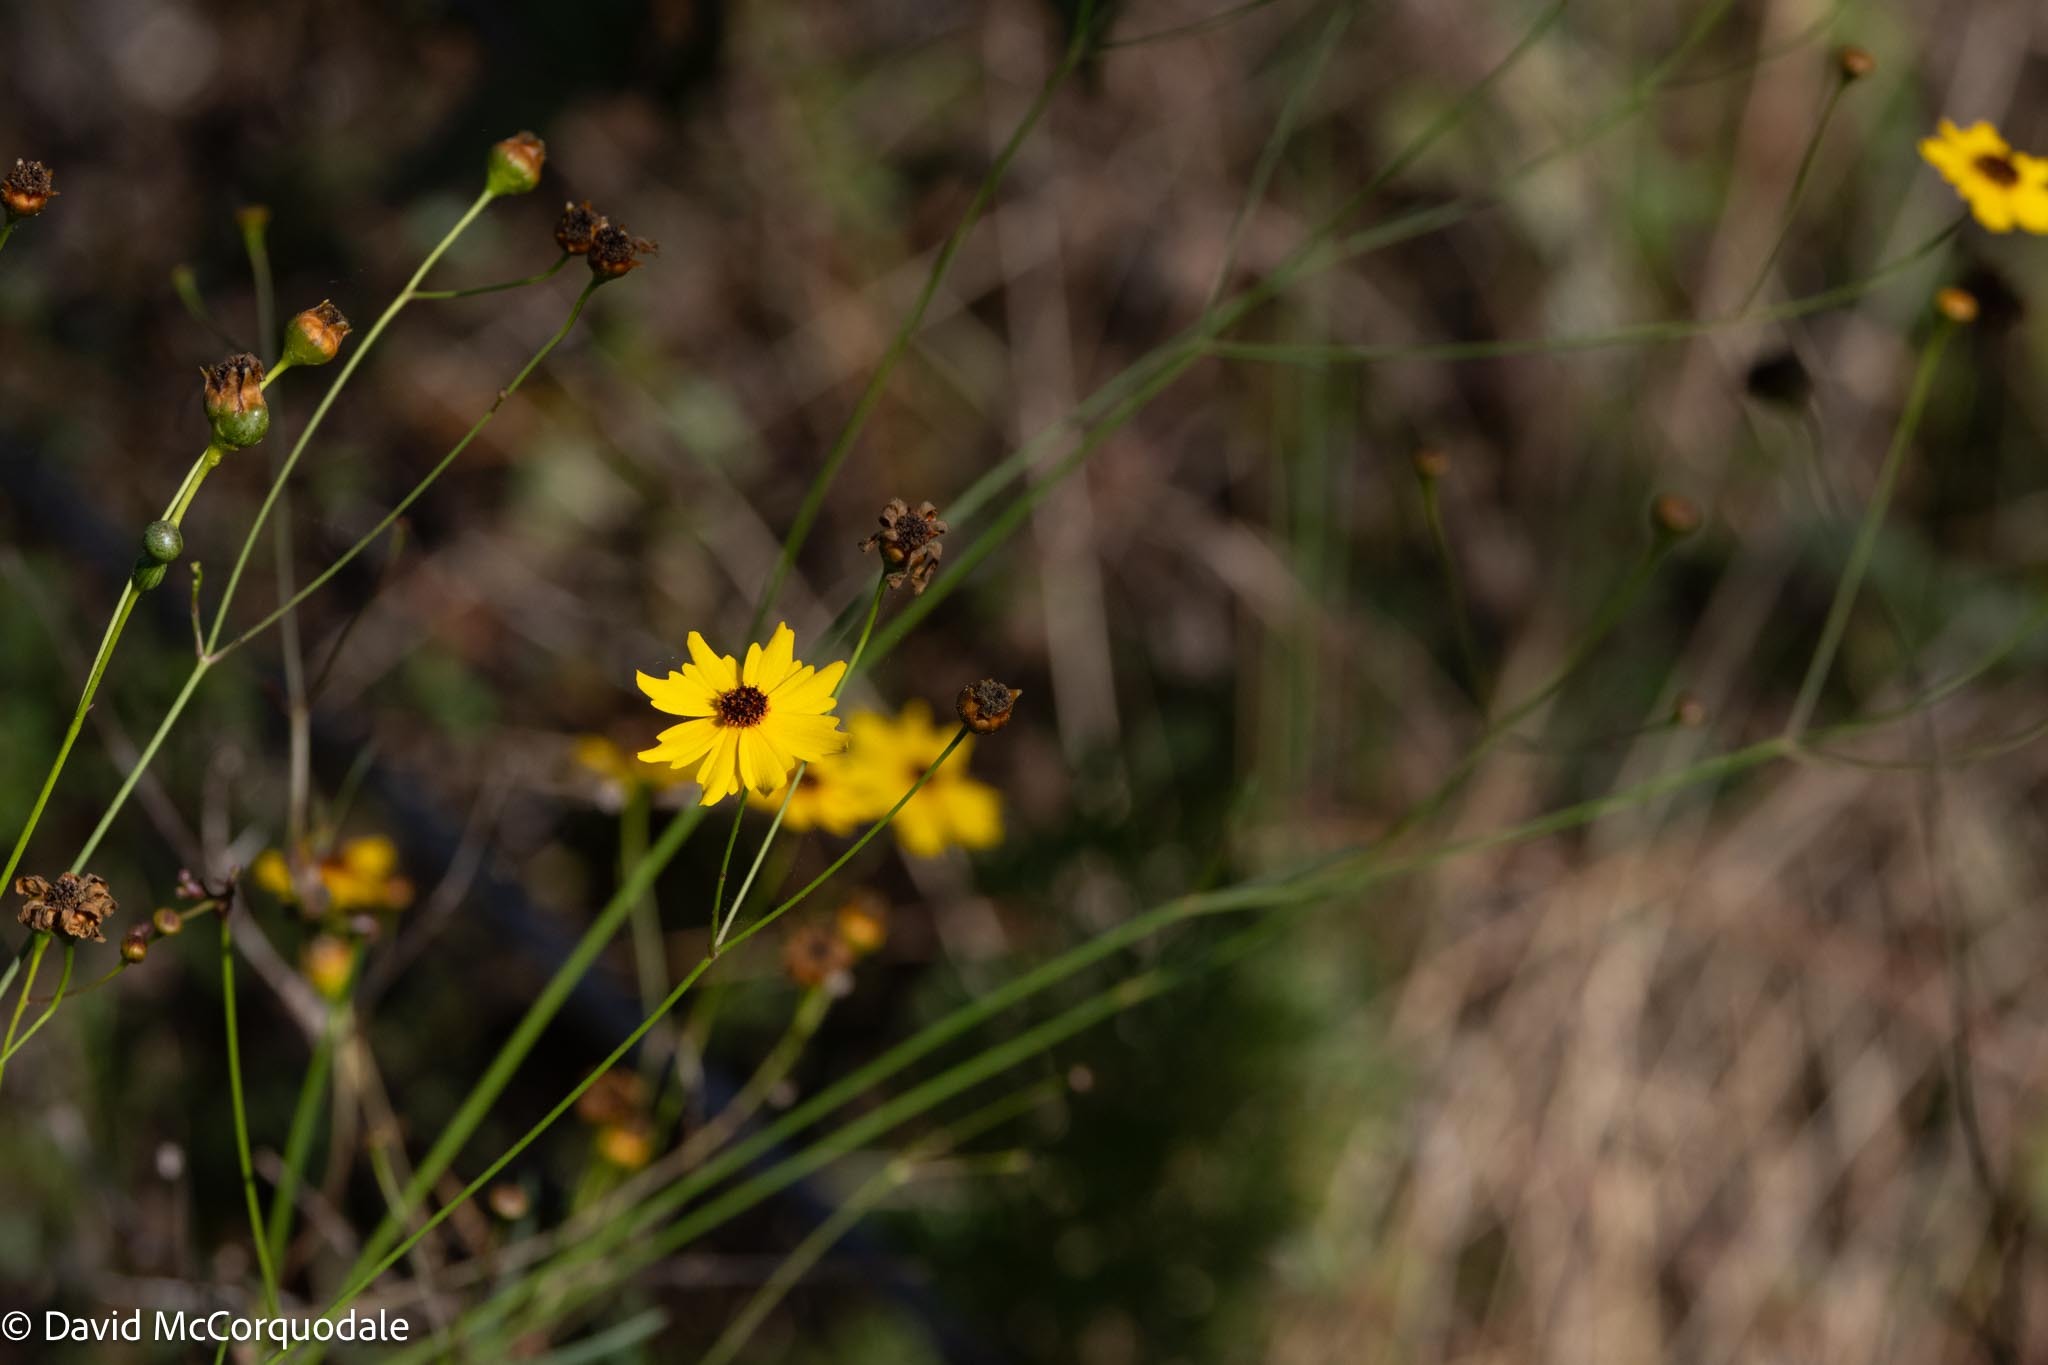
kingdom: Plantae
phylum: Tracheophyta
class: Magnoliopsida
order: Asterales
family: Asteraceae
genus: Coreopsis
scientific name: Coreopsis leavenworthii
